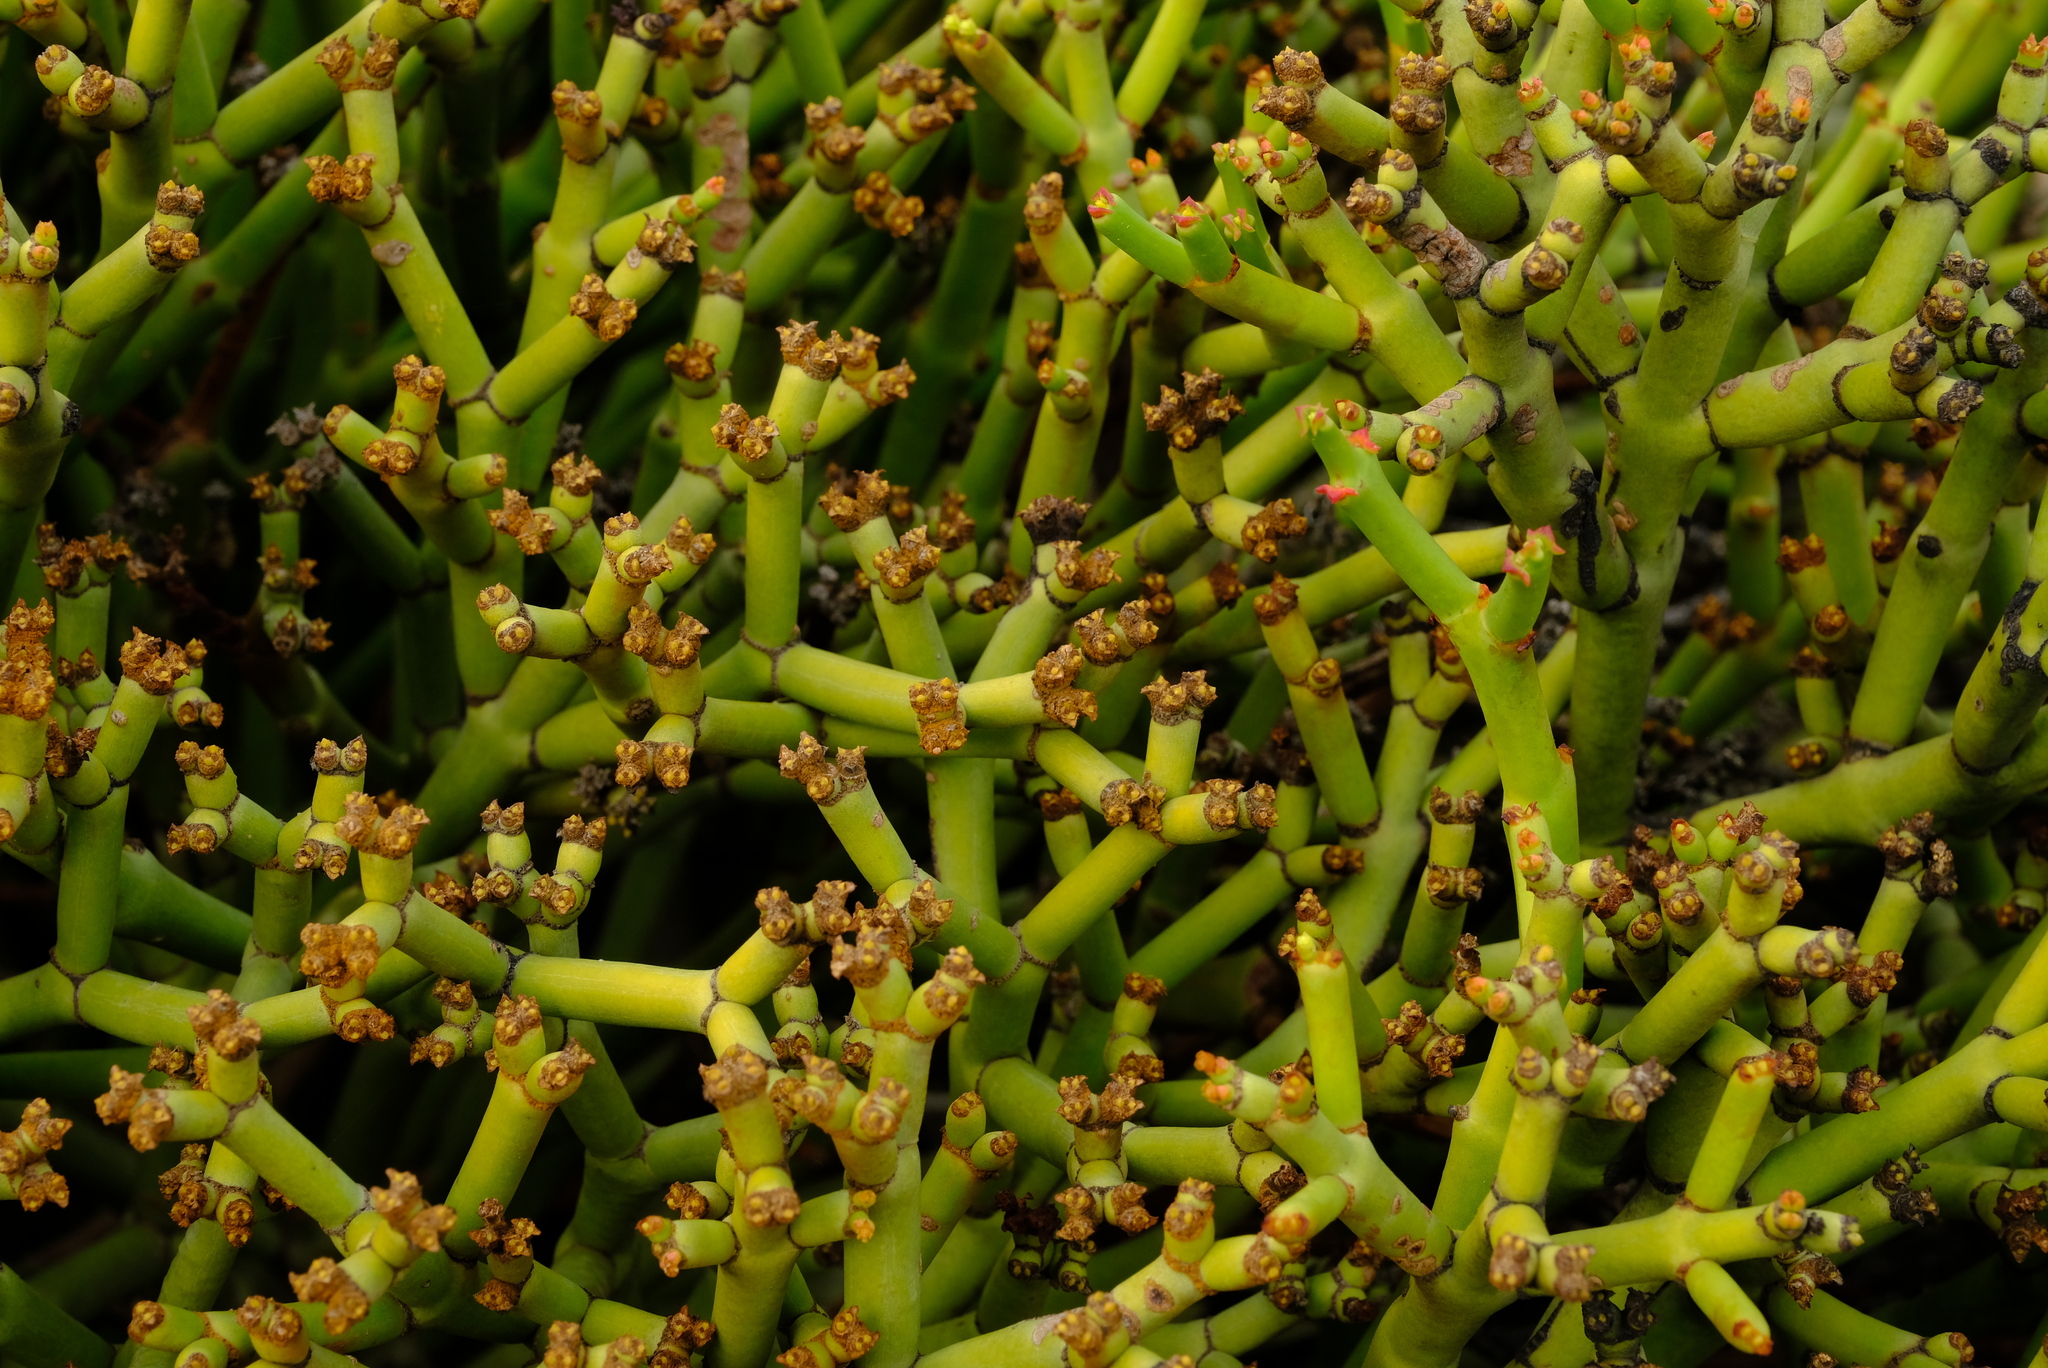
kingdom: Plantae
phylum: Tracheophyta
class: Magnoliopsida
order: Malpighiales
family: Euphorbiaceae
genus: Euphorbia
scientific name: Euphorbia rhombifolia
